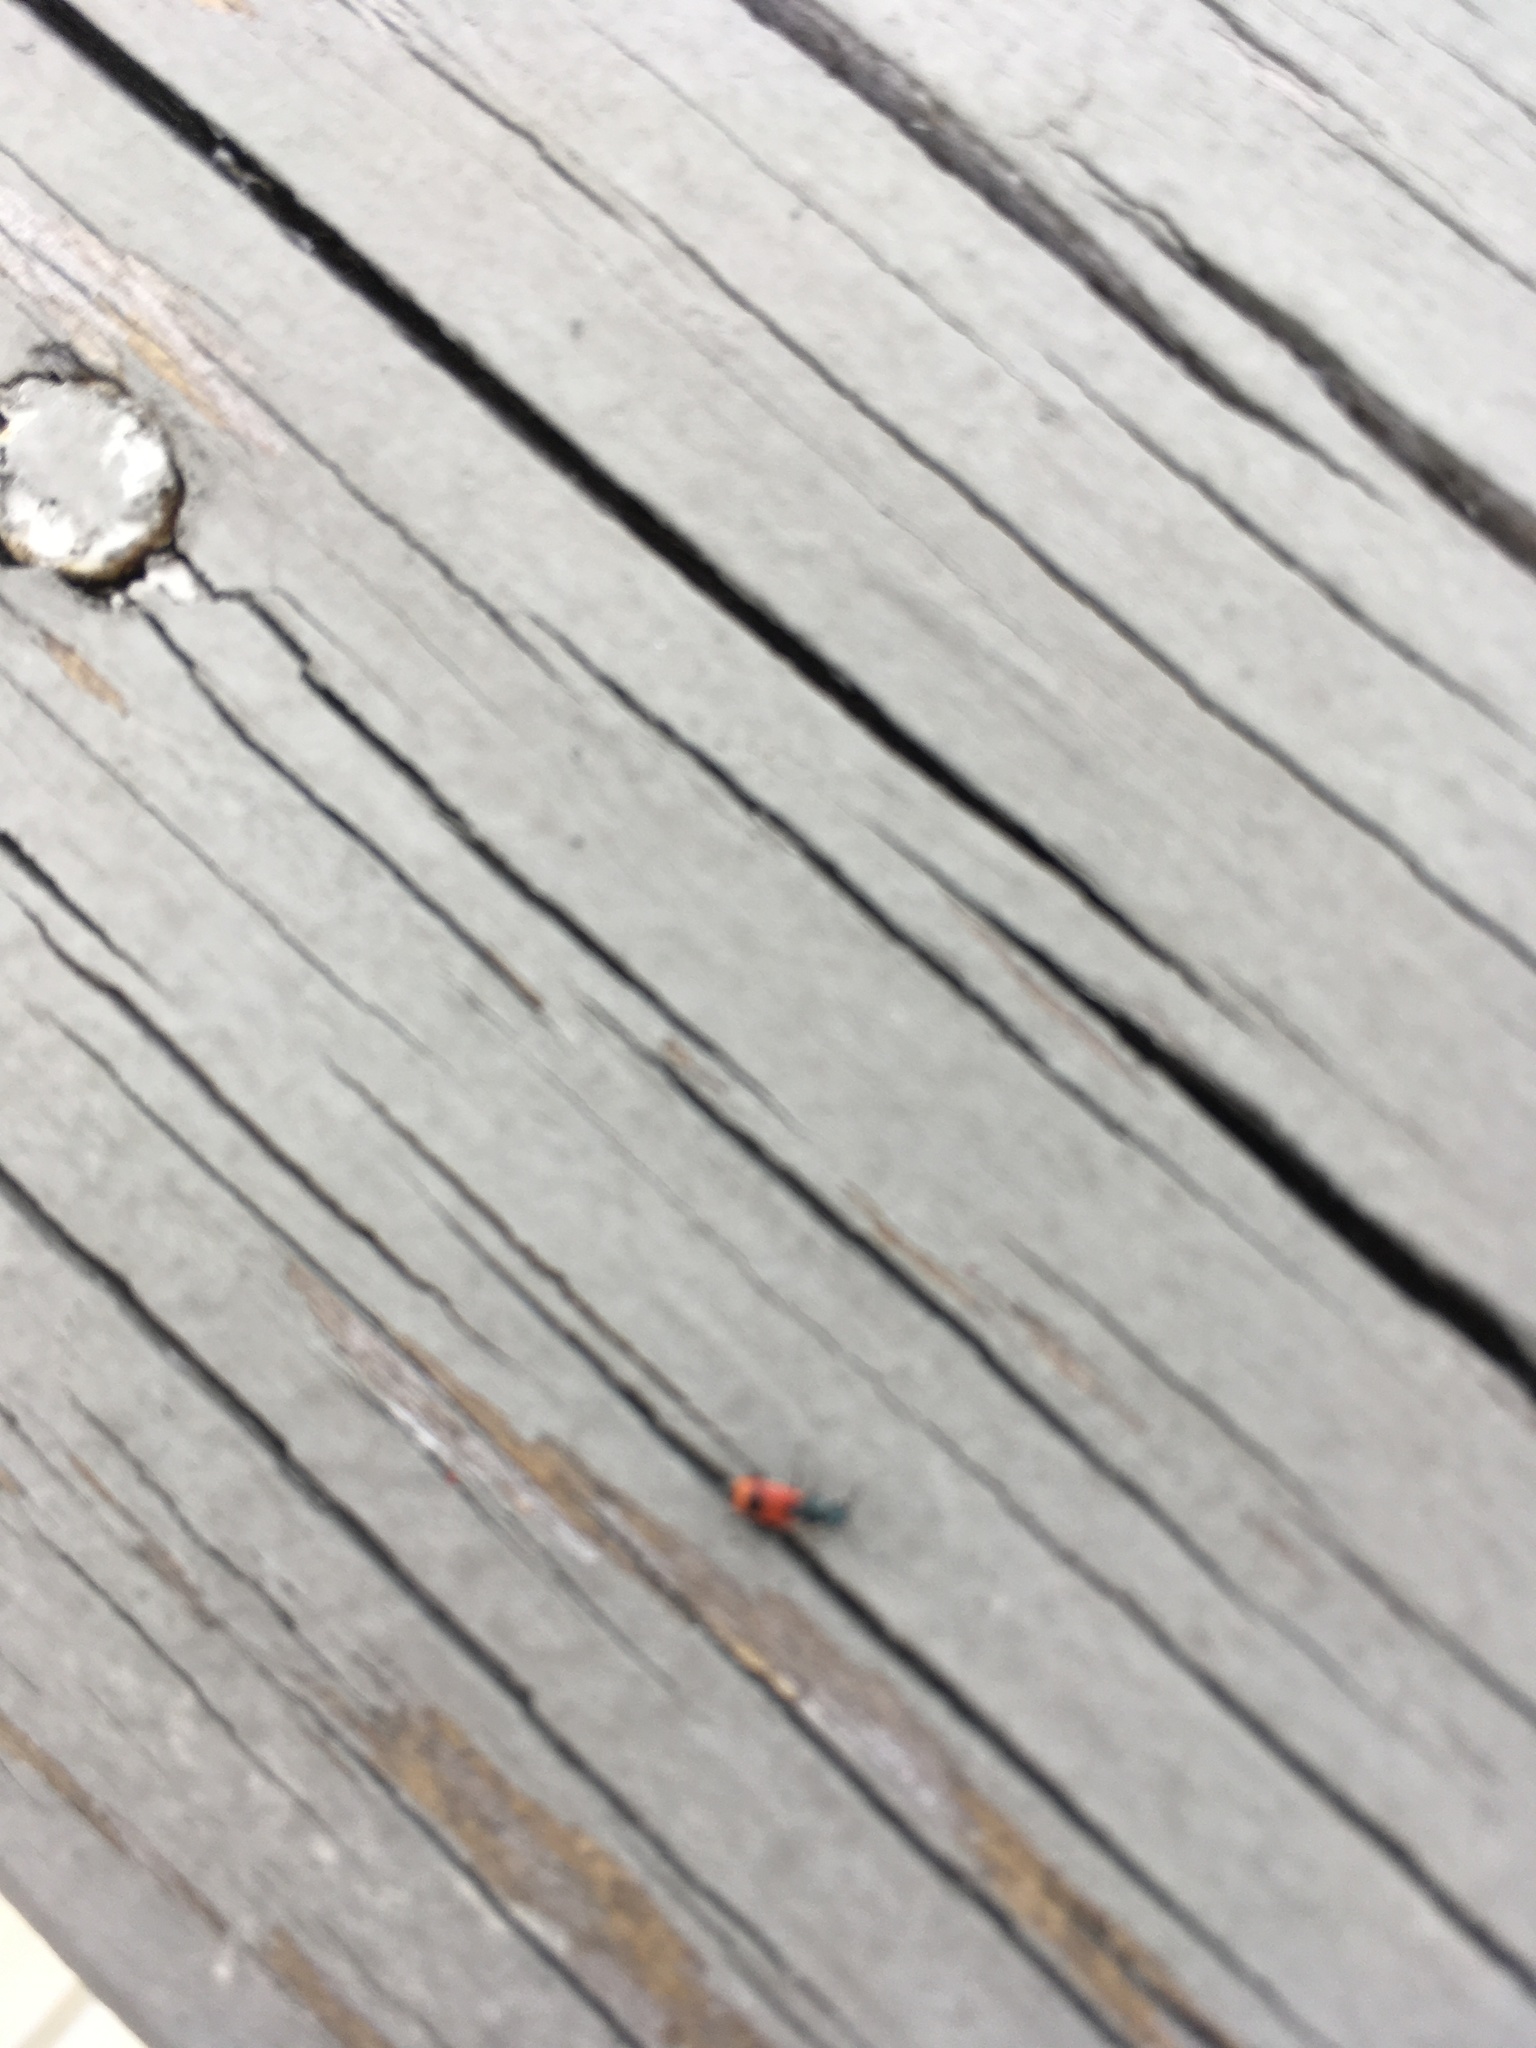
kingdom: Animalia
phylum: Arthropoda
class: Insecta
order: Coleoptera
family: Melyridae
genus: Anthocomus
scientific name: Anthocomus equestris
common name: Black-banded soft-winged flower beetle
